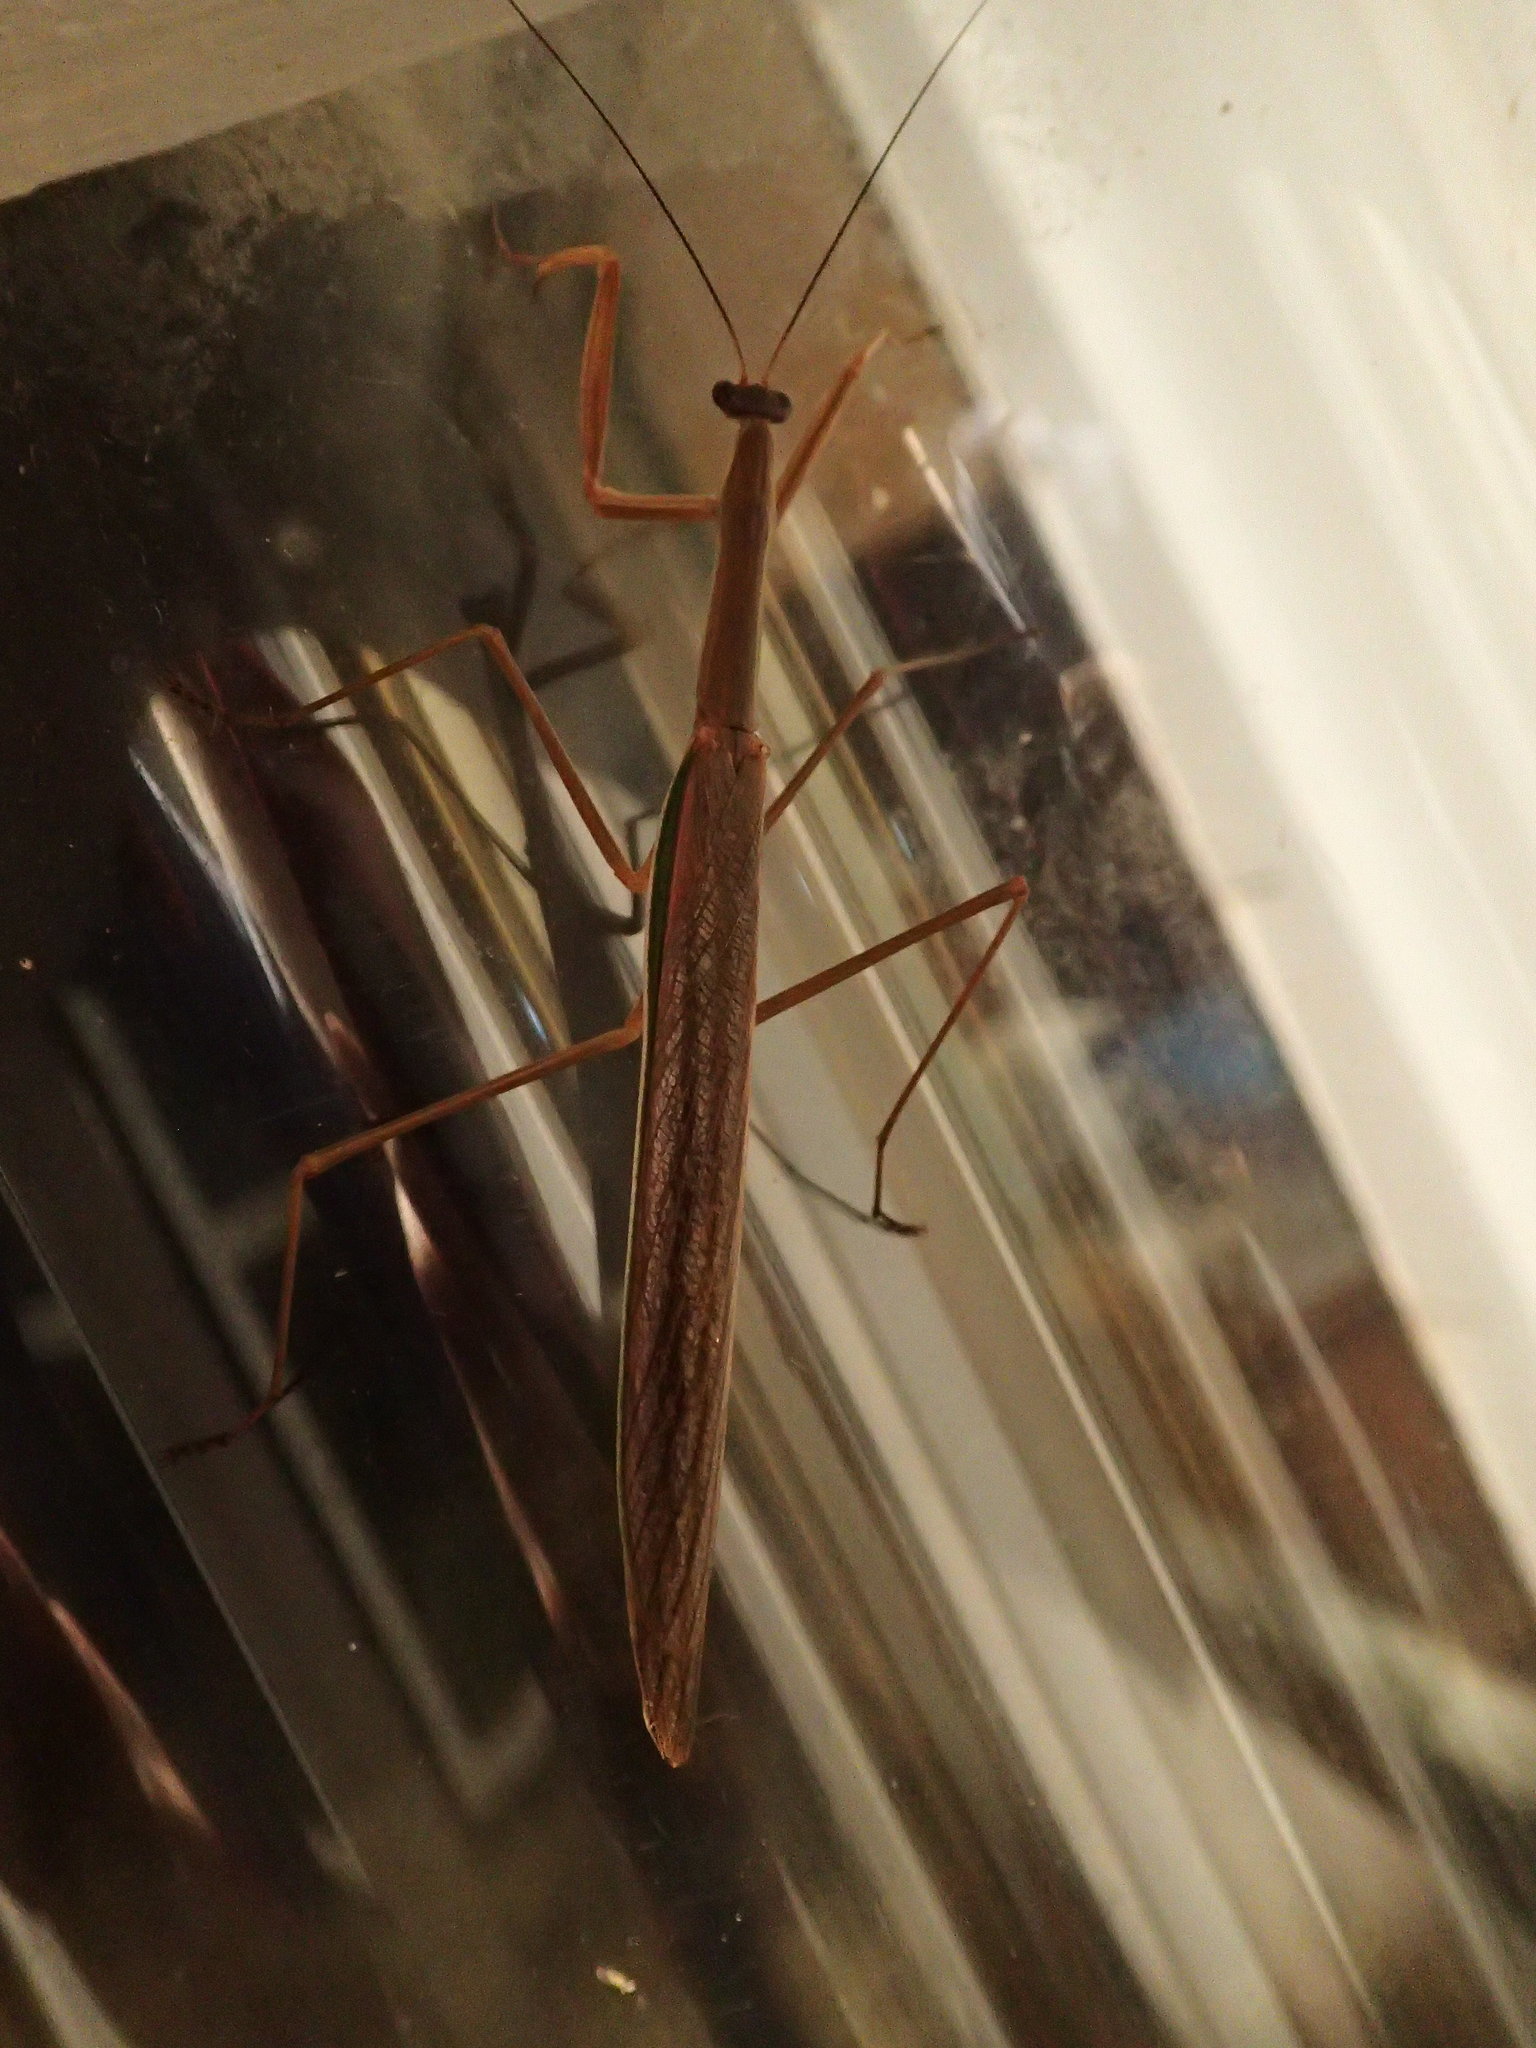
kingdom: Animalia
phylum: Arthropoda
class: Insecta
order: Mantodea
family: Mantidae
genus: Tenodera
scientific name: Tenodera australasiae
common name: Purple-winged mantis
